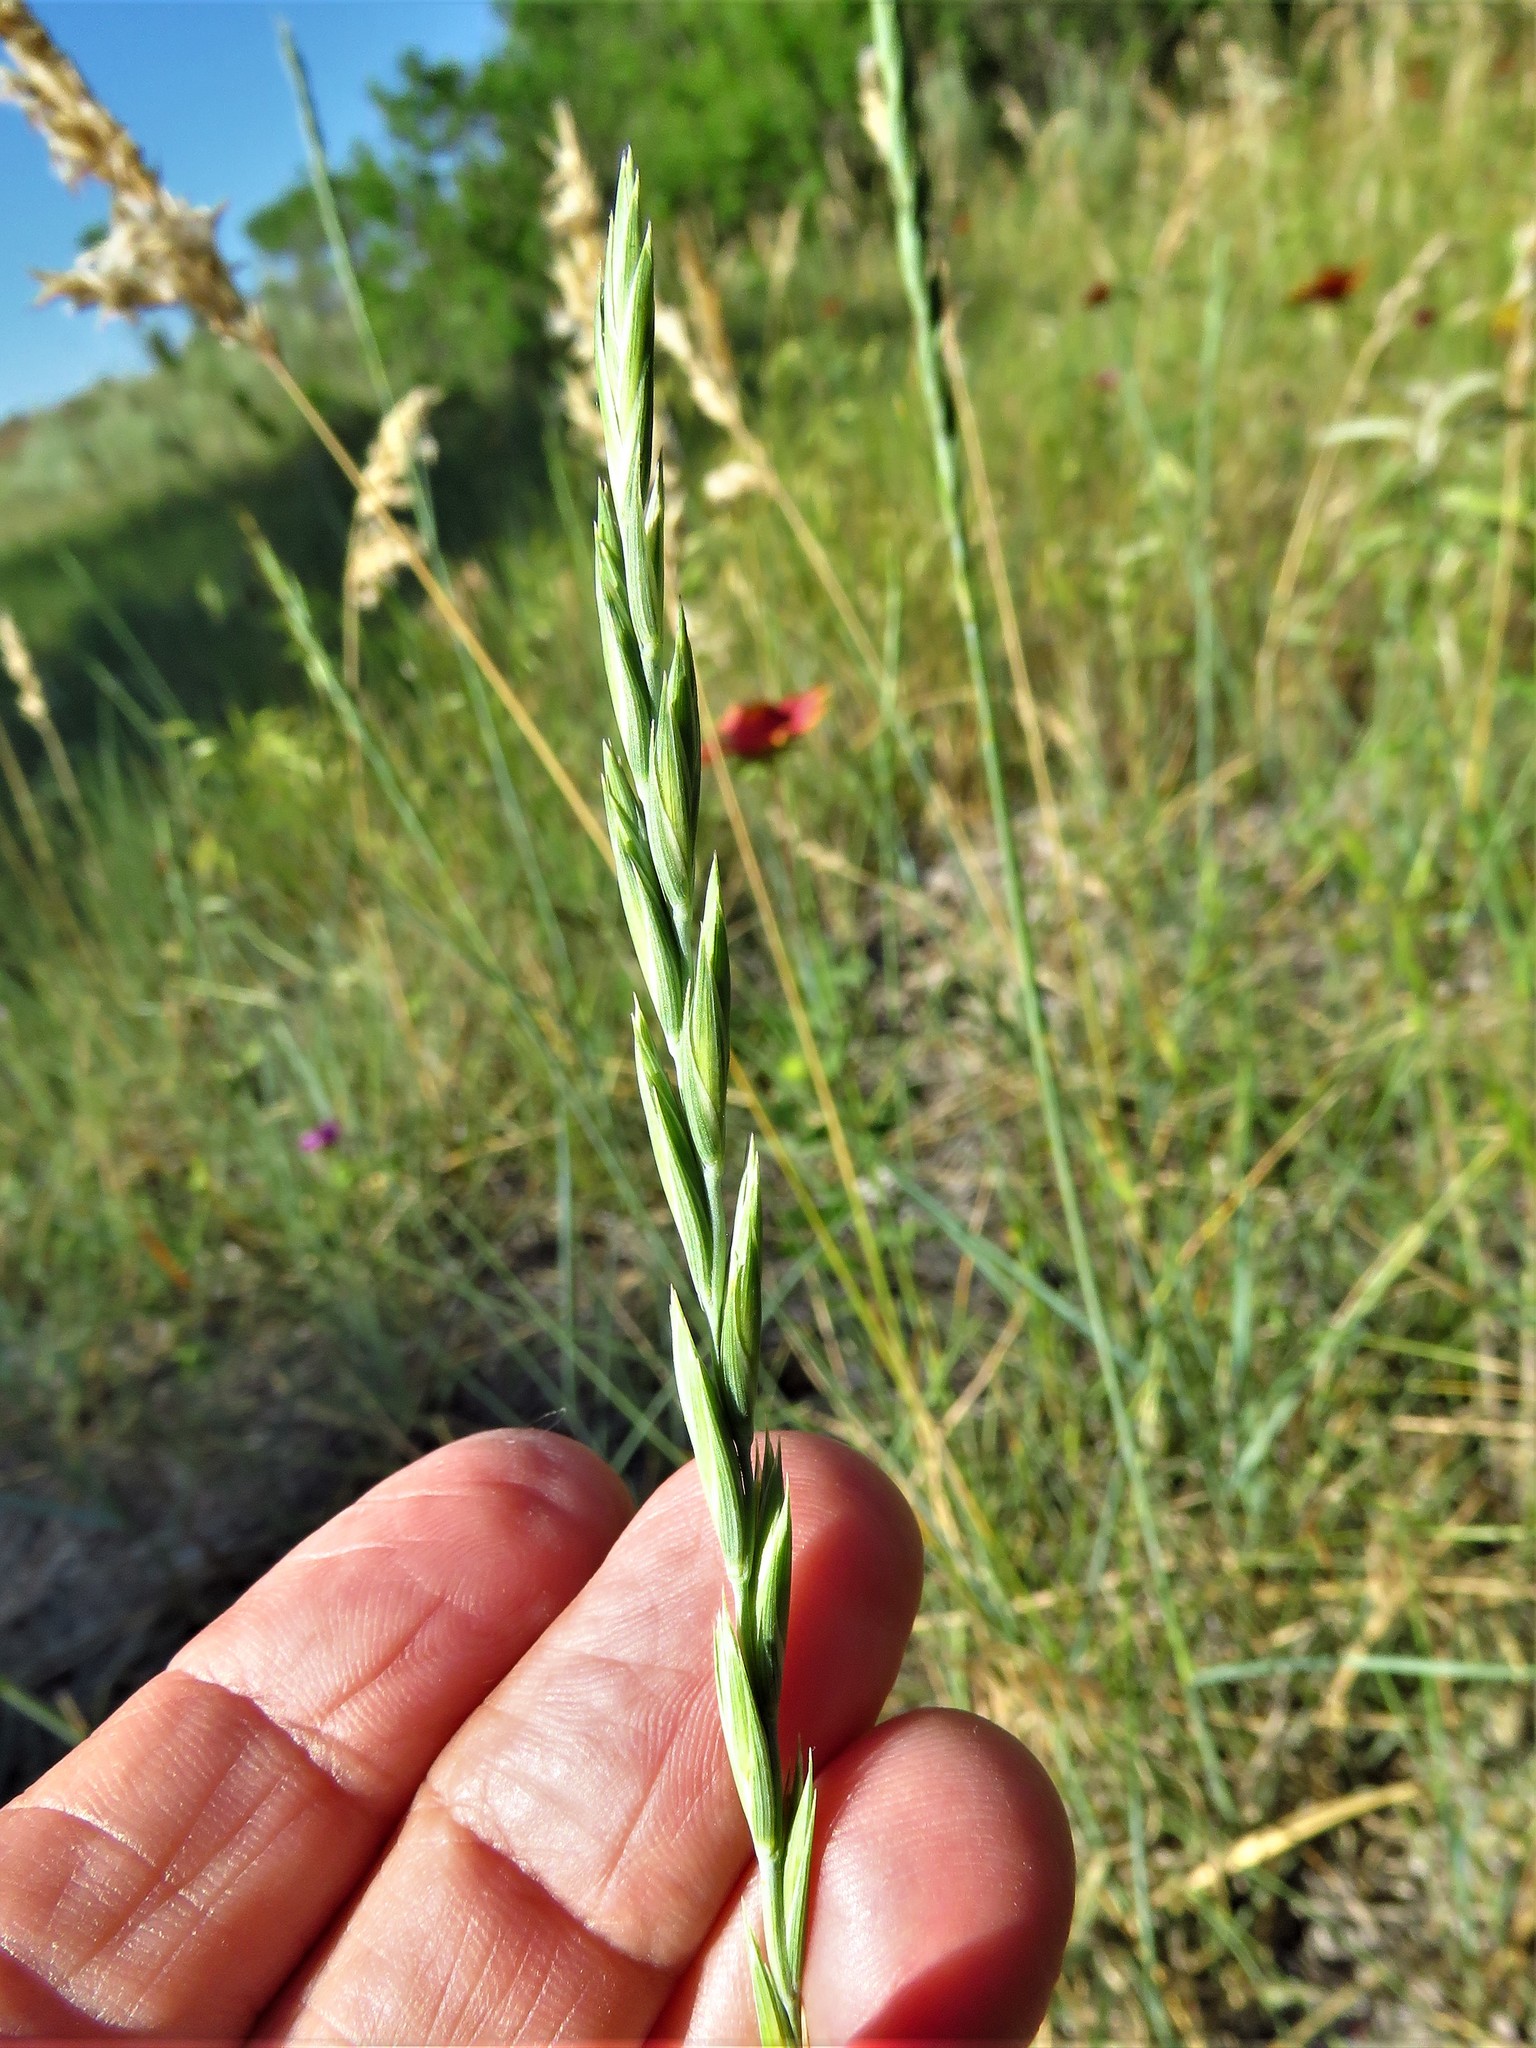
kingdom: Plantae
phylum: Tracheophyta
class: Liliopsida
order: Poales
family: Poaceae
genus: Elymus
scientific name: Elymus smithii
